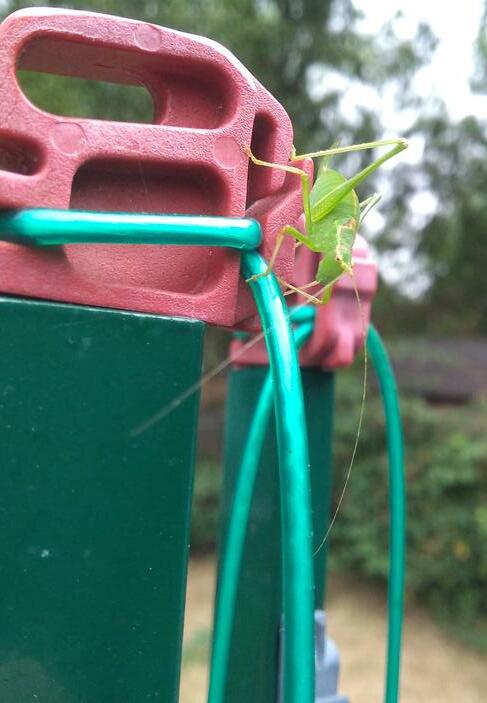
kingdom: Animalia
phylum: Arthropoda
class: Insecta
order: Orthoptera
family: Tettigoniidae
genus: Leptophyes
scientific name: Leptophyes punctatissima
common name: Speckled bush-cricket
